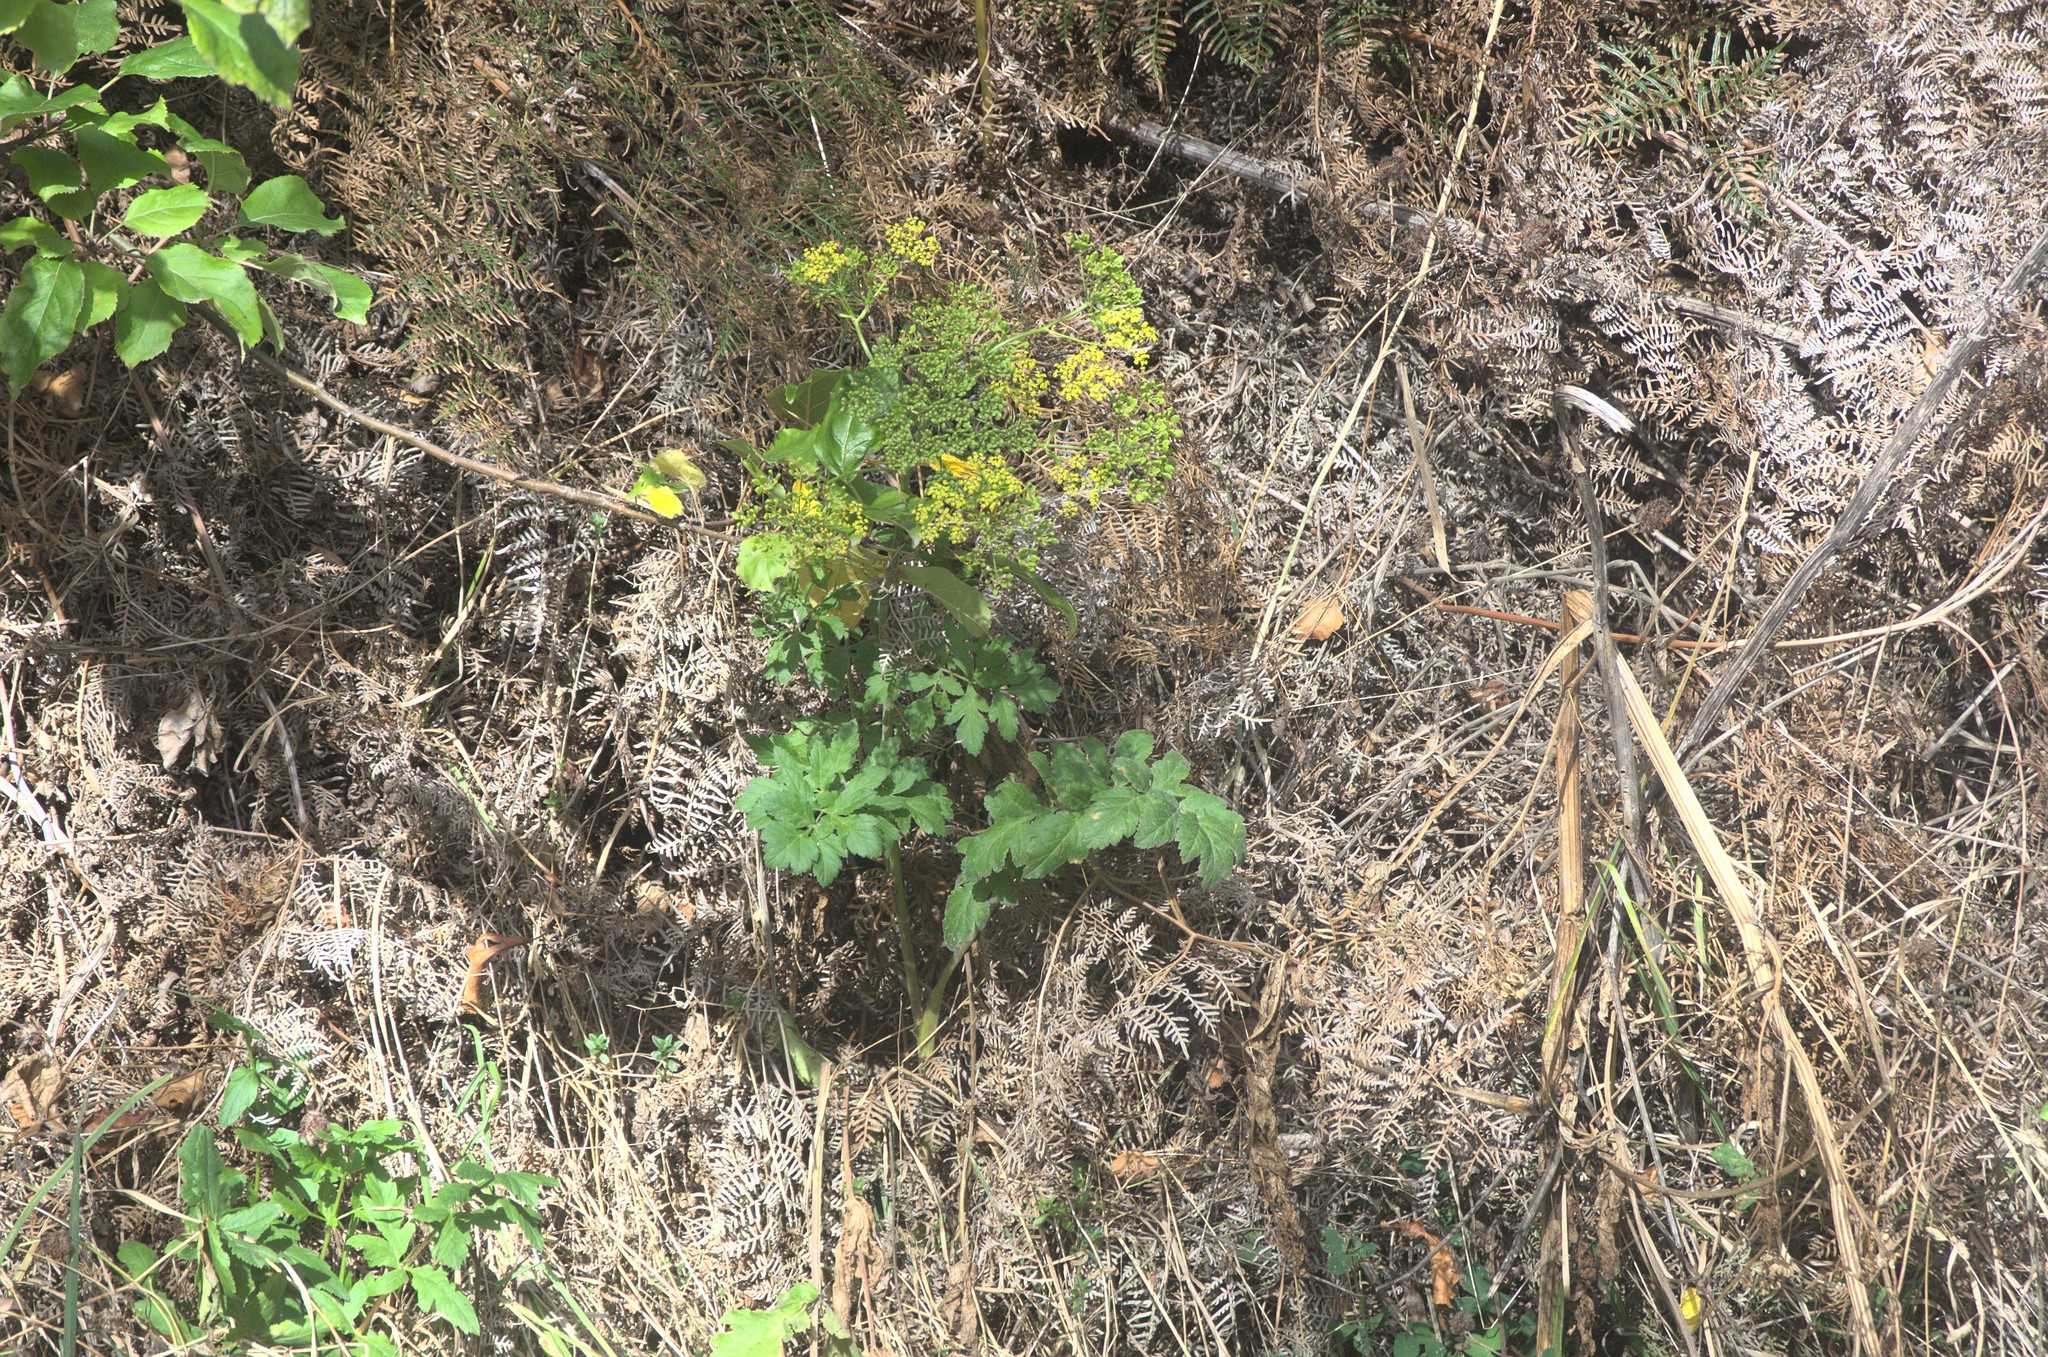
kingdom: Plantae
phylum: Tracheophyta
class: Magnoliopsida
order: Apiales
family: Apiaceae
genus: Pastinaca
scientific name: Pastinaca sativa
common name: Wild parsnip
